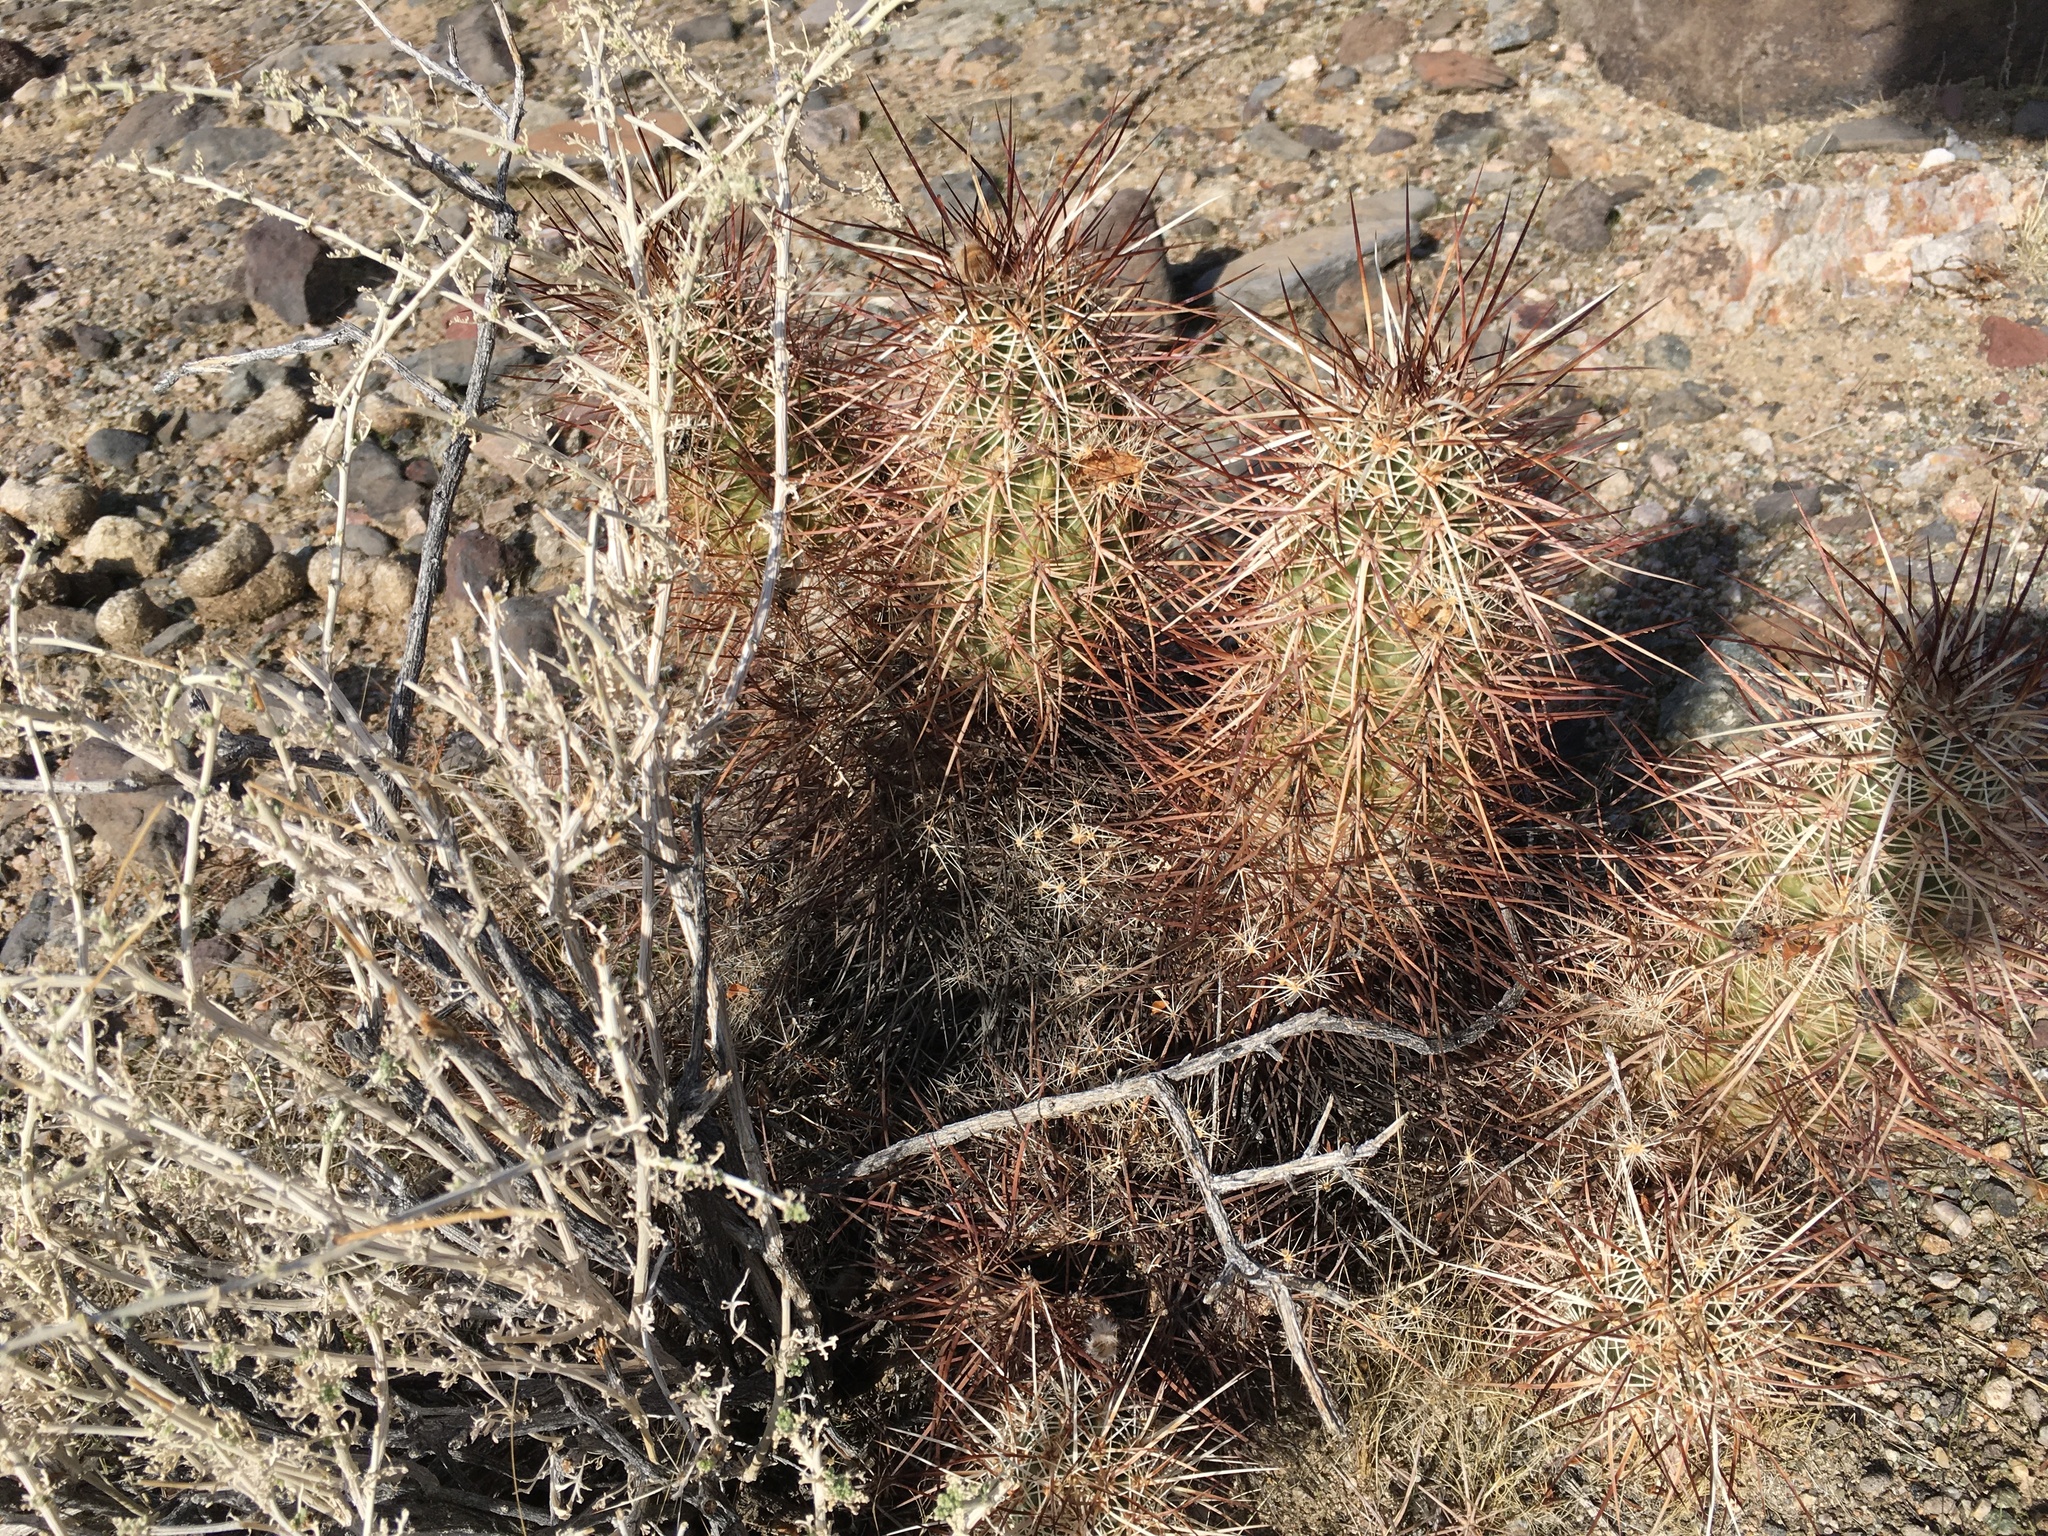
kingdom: Plantae
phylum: Tracheophyta
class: Magnoliopsida
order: Caryophyllales
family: Cactaceae
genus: Echinocereus
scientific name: Echinocereus engelmannii
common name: Engelmann's hedgehog cactus
